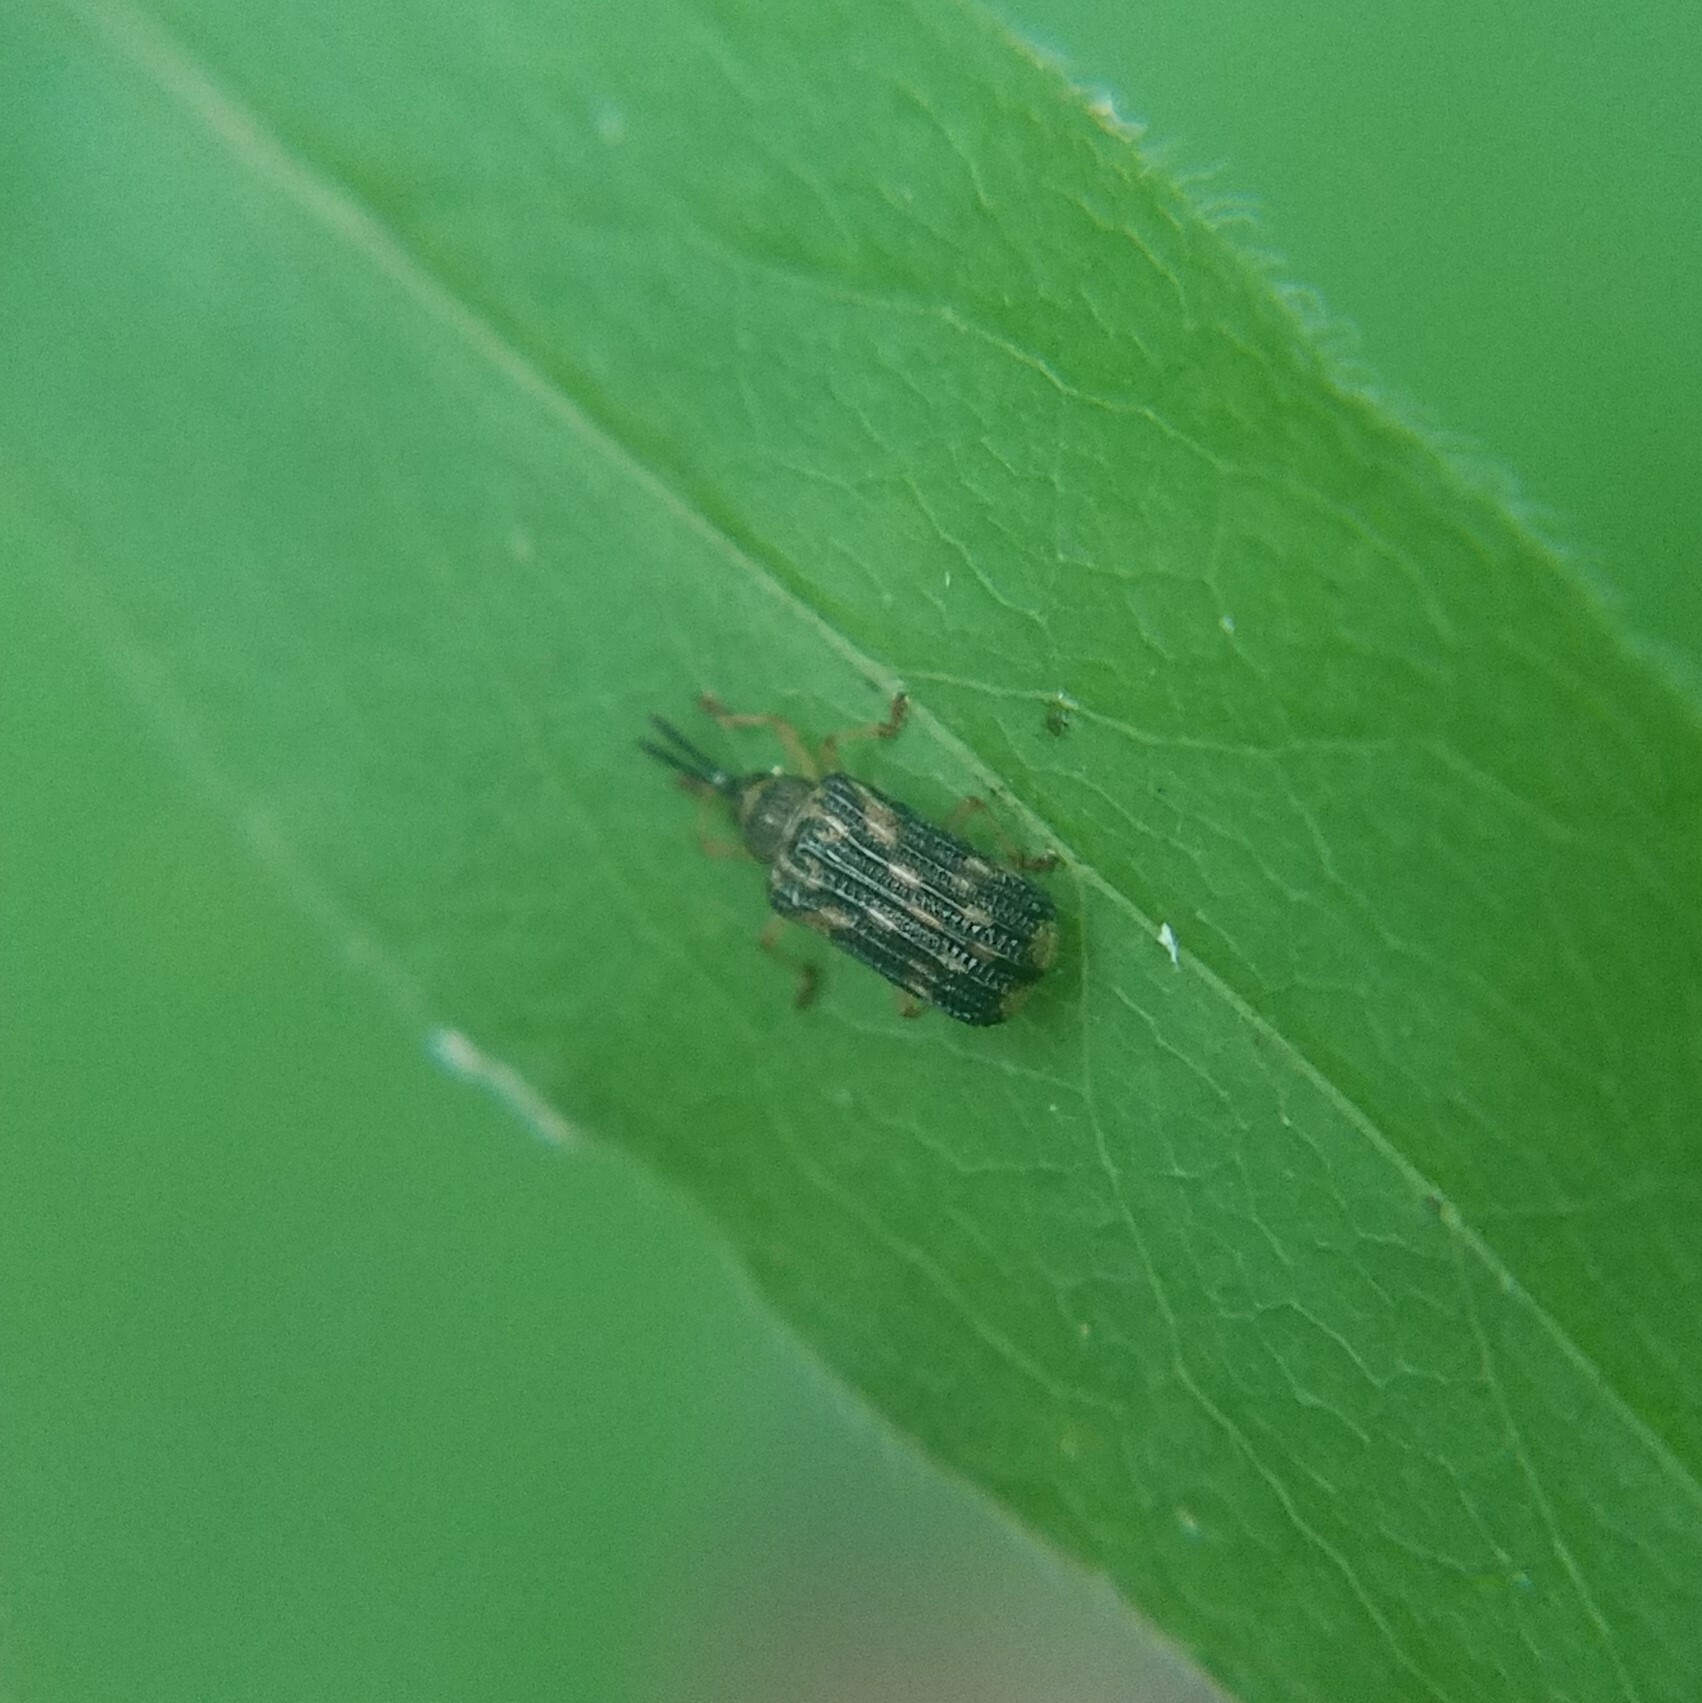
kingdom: Animalia
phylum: Arthropoda
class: Insecta
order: Coleoptera
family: Chrysomelidae
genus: Sumitrosis
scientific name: Sumitrosis inaequalis
